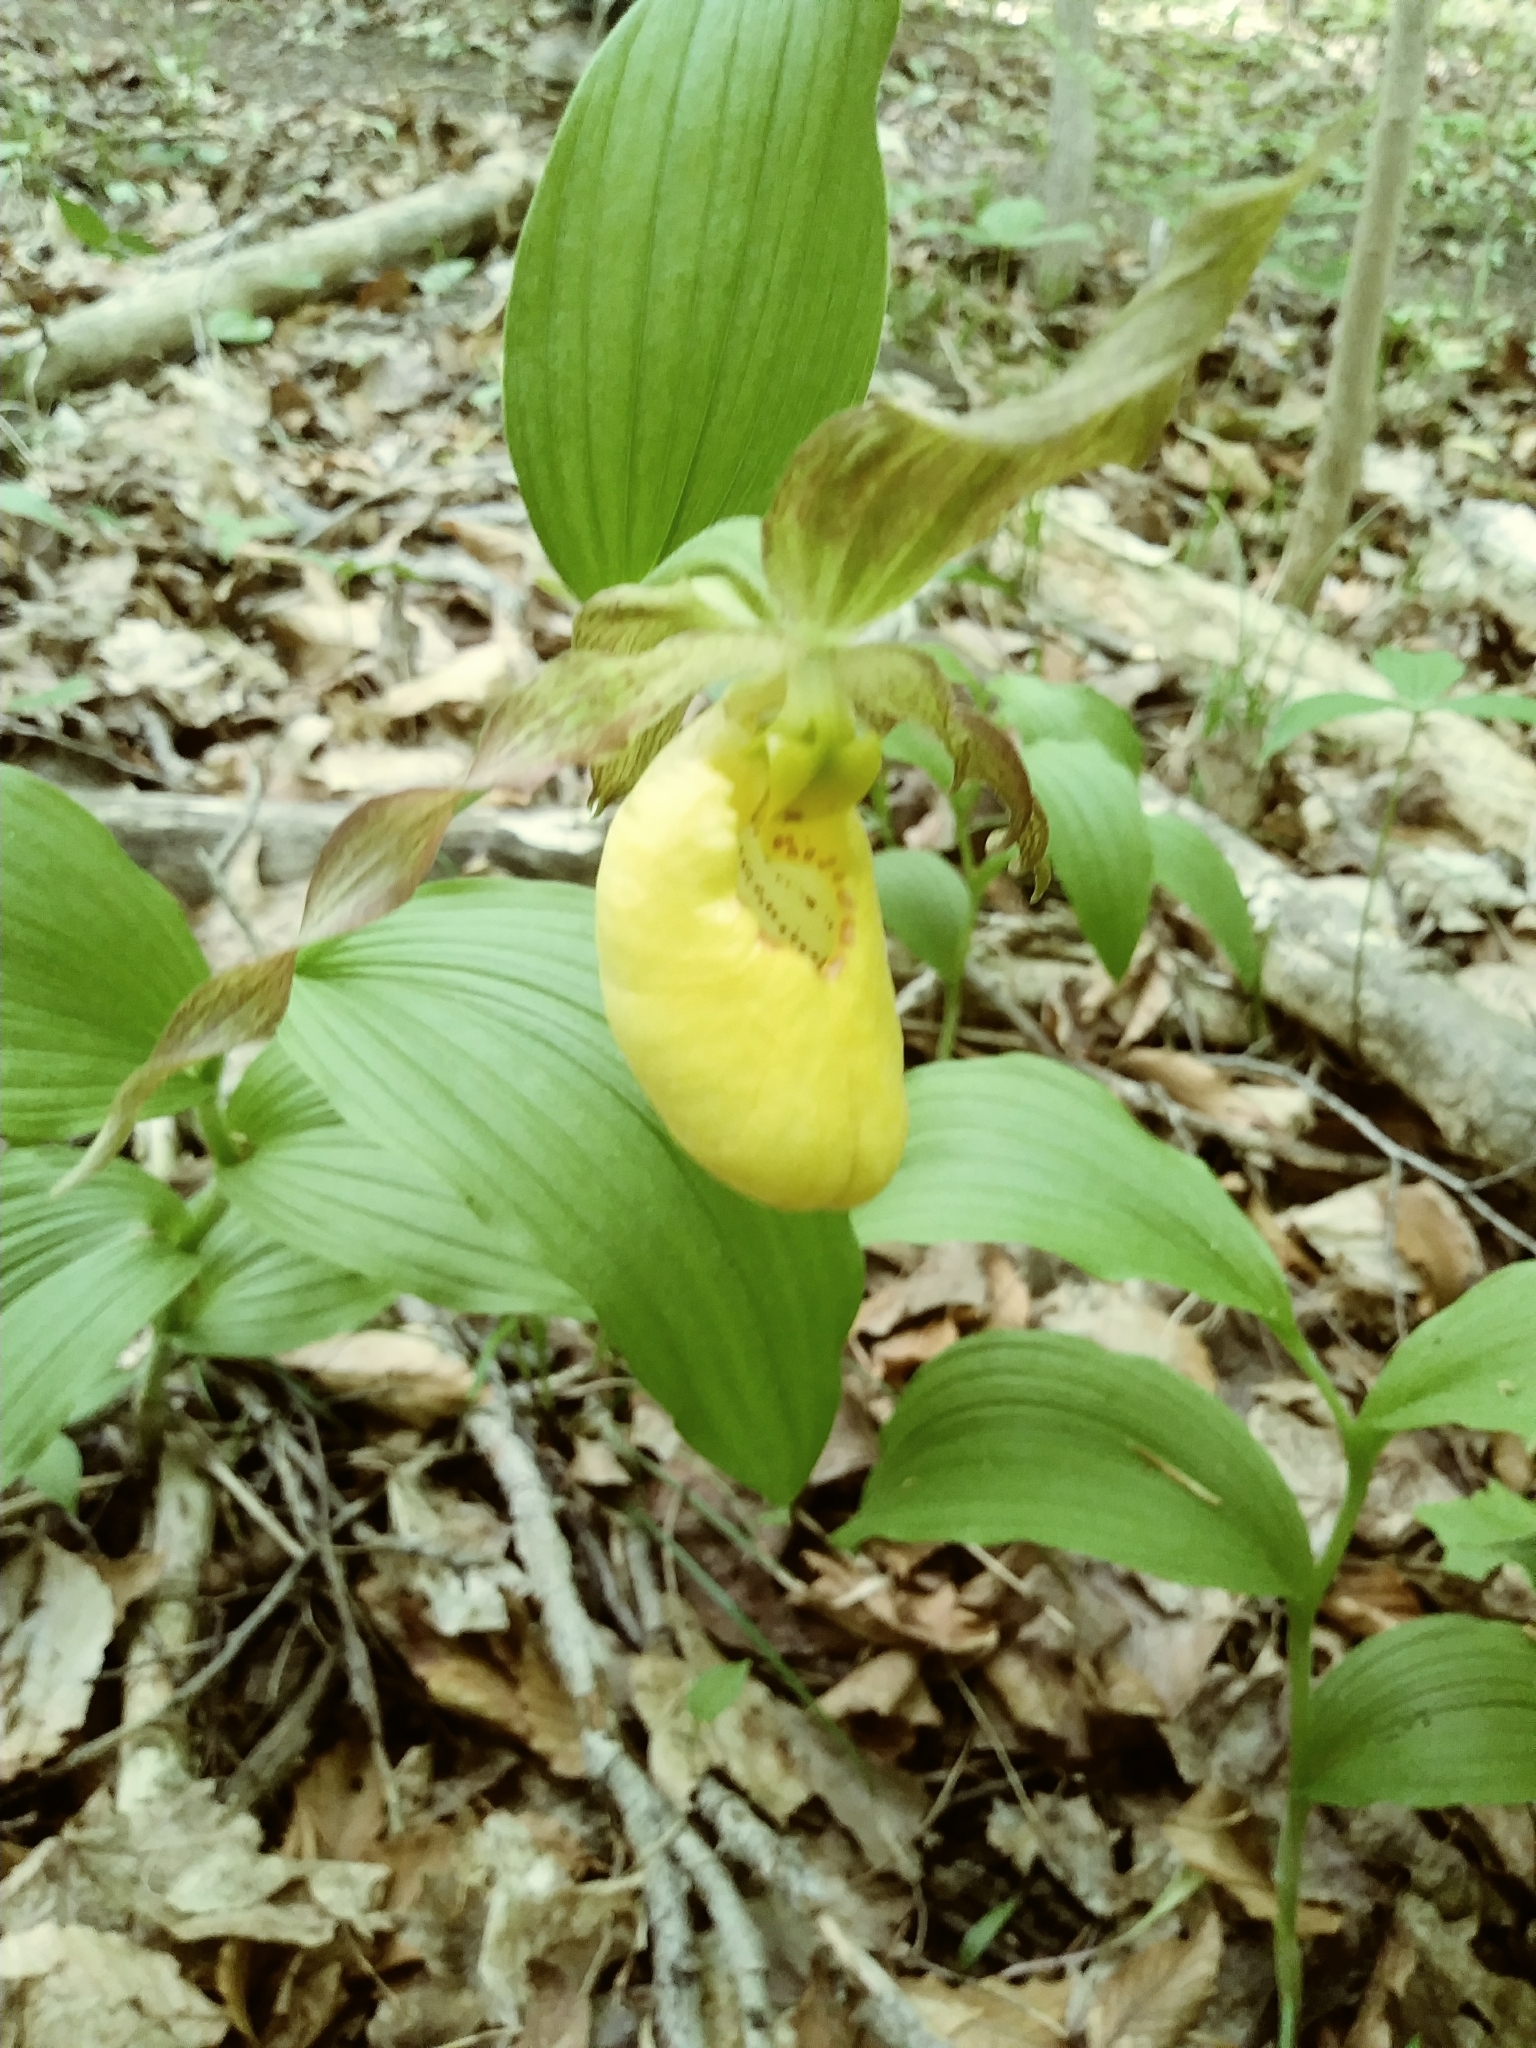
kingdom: Plantae
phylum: Tracheophyta
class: Liliopsida
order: Asparagales
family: Orchidaceae
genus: Cypripedium
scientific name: Cypripedium parviflorum
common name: American yellow lady's-slipper
